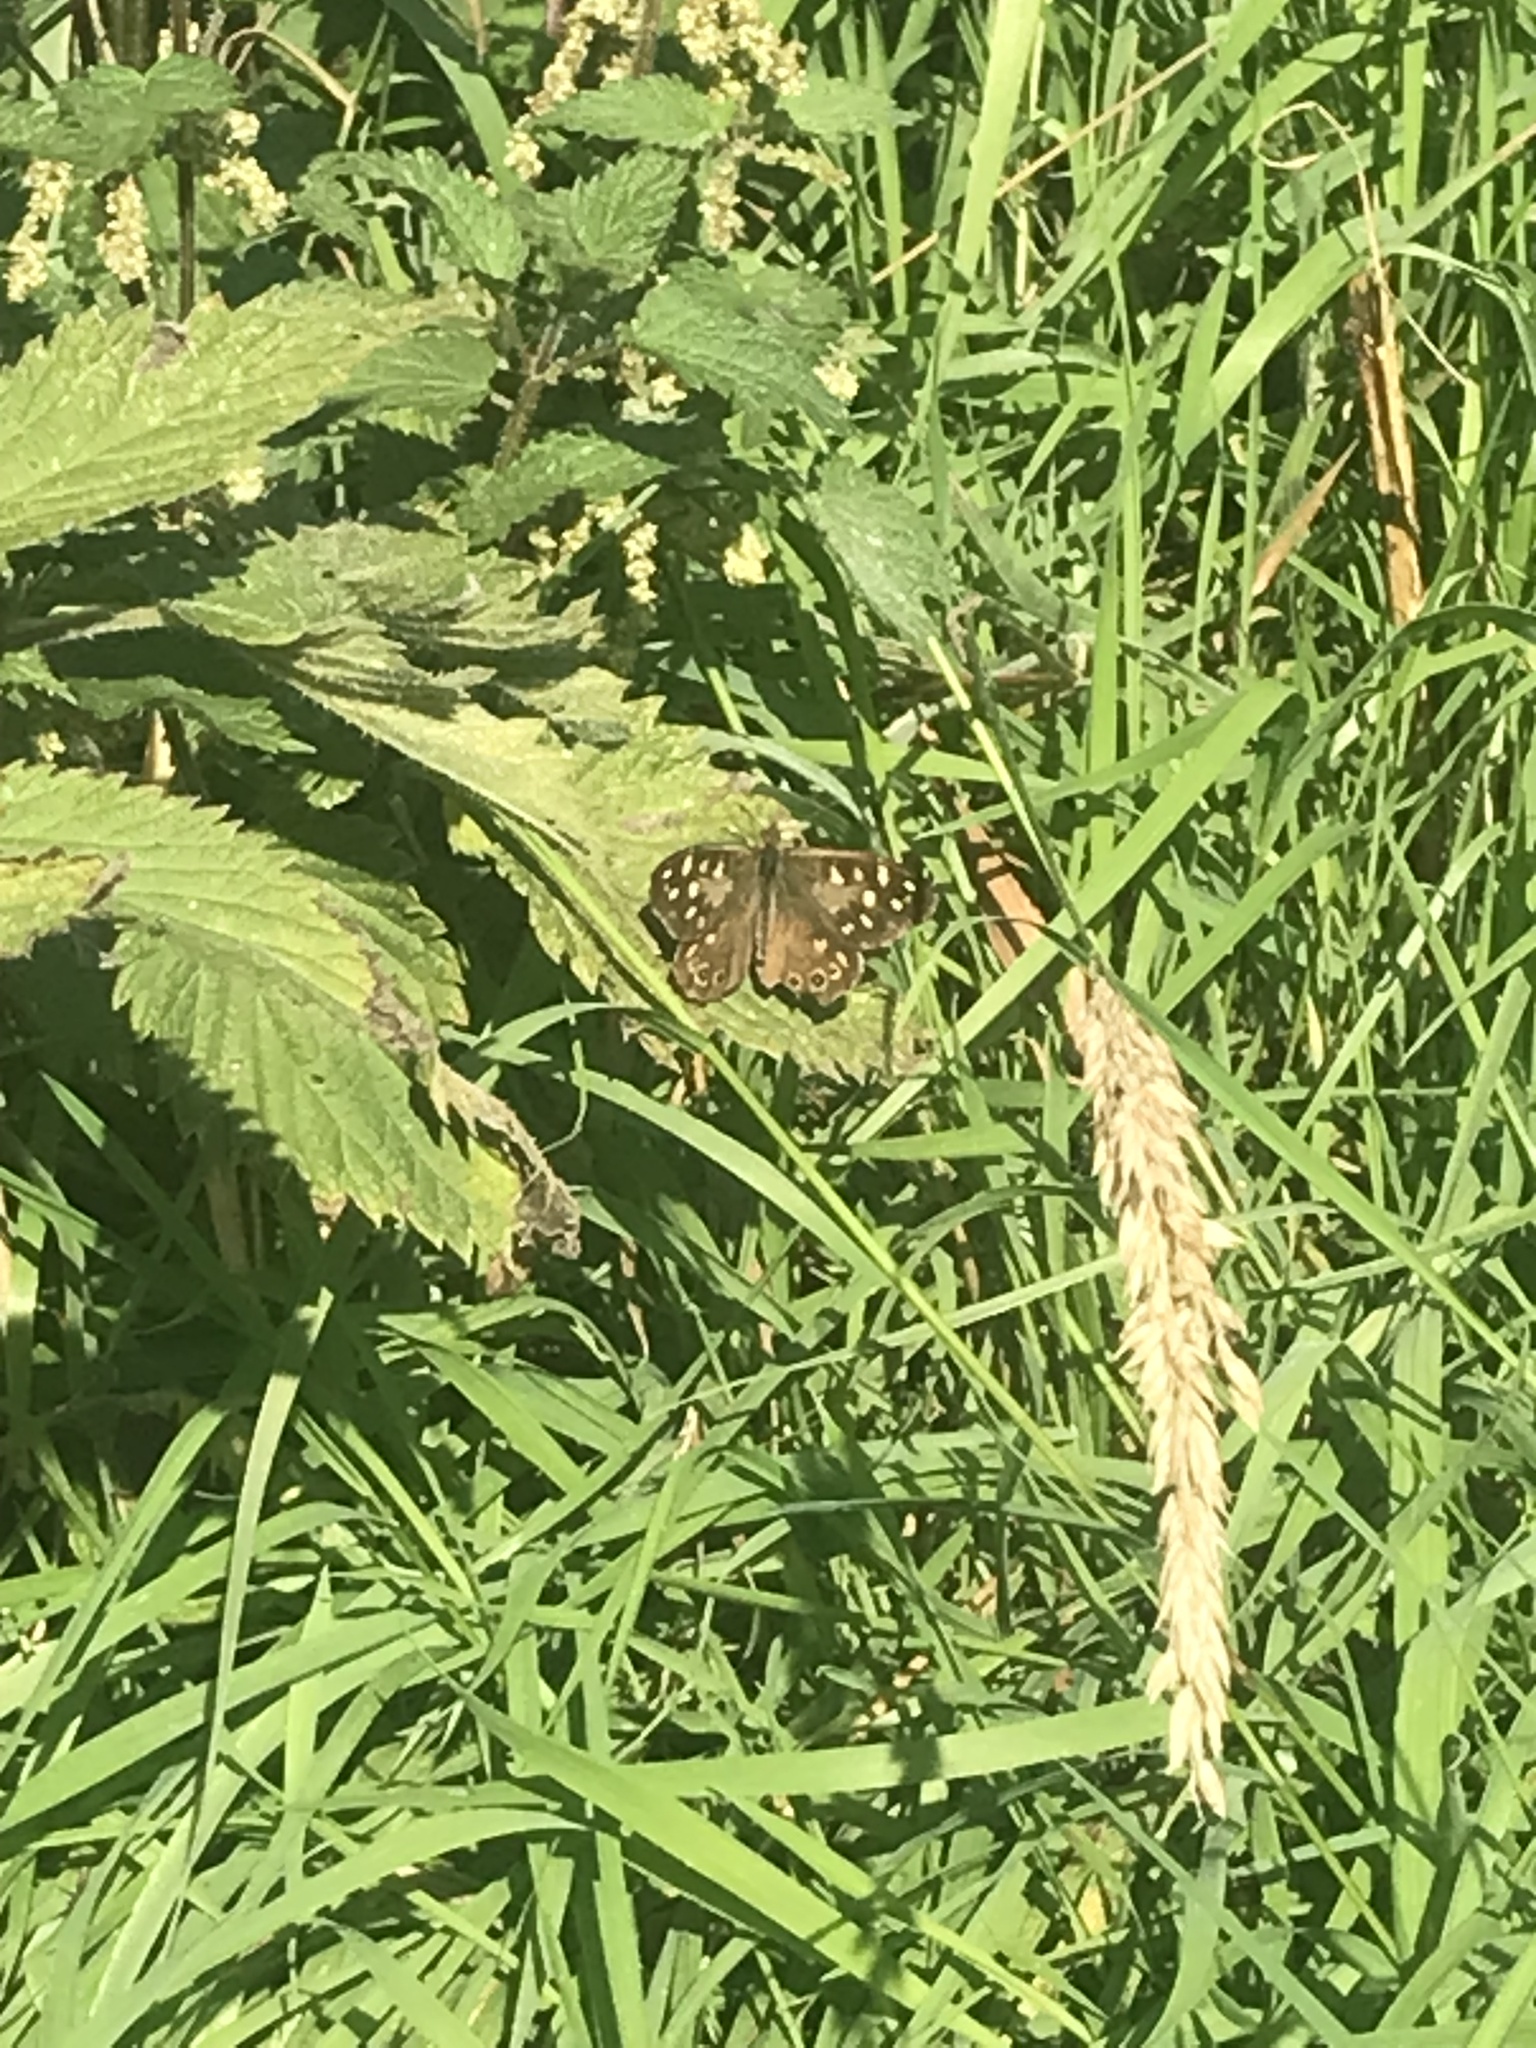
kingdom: Animalia
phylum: Arthropoda
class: Insecta
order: Lepidoptera
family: Nymphalidae
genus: Pararge
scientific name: Pararge aegeria
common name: Speckled wood
